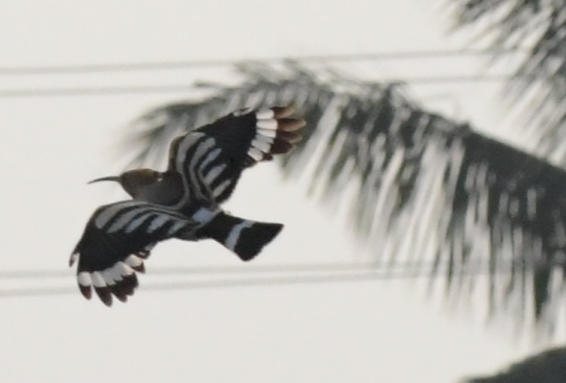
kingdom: Animalia
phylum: Chordata
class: Aves
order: Bucerotiformes
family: Upupidae
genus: Upupa
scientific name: Upupa epops
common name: Eurasian hoopoe
